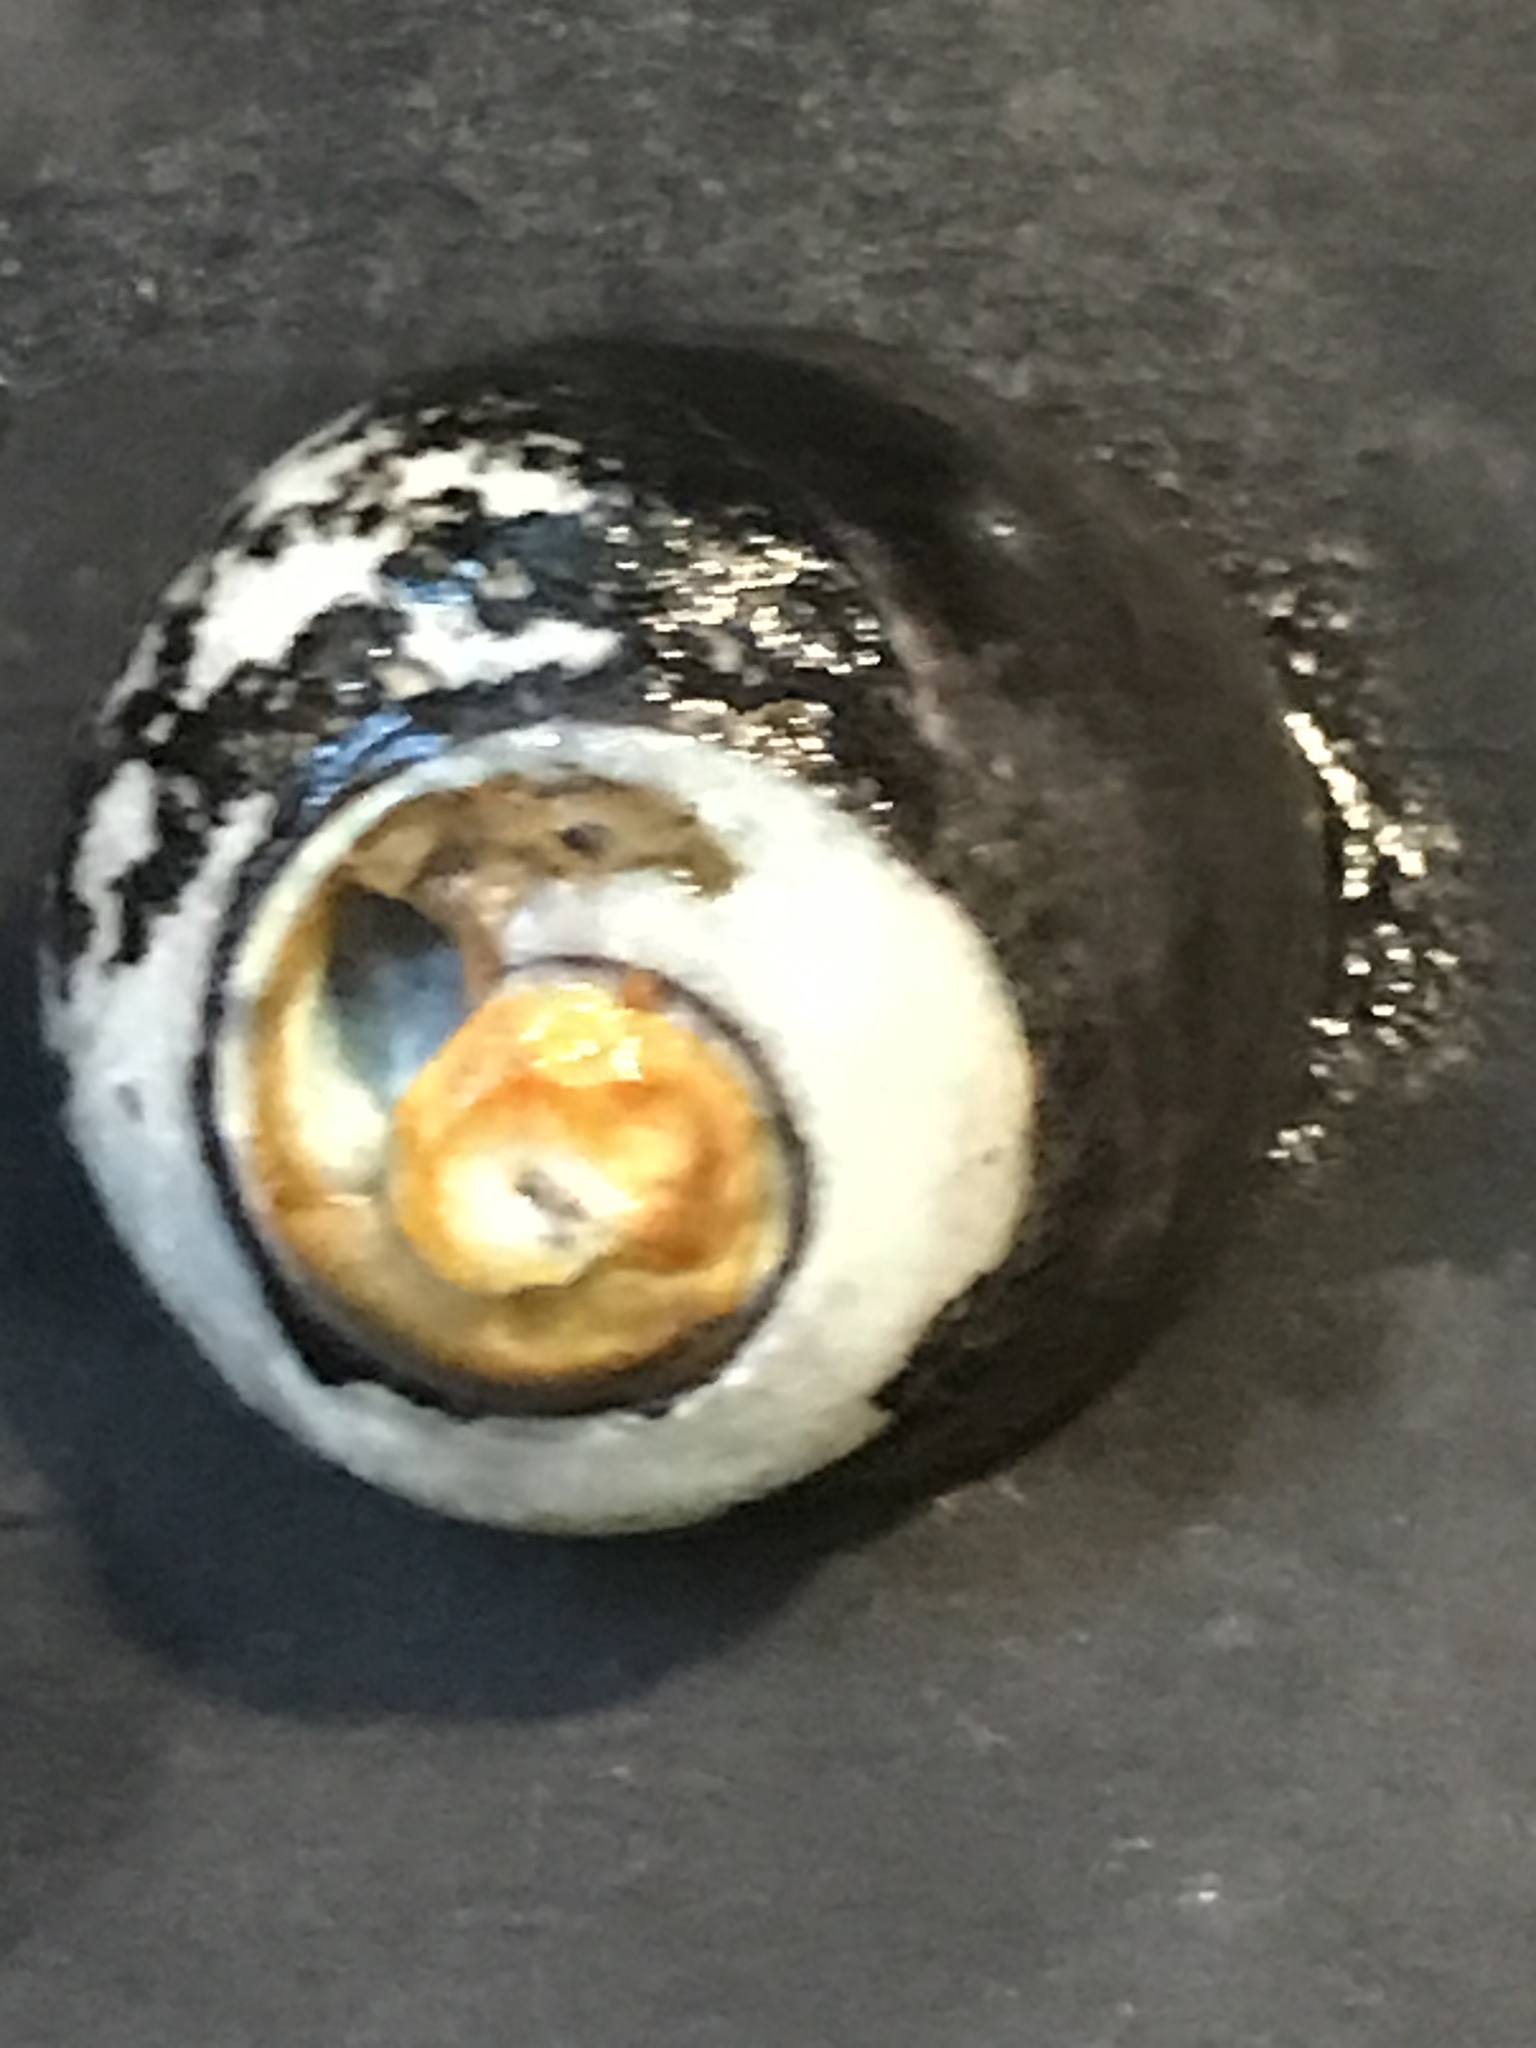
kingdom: Animalia
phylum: Mollusca
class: Gastropoda
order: Trochida
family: Tegulidae
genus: Tegula
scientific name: Tegula funebralis
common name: Black tegula
